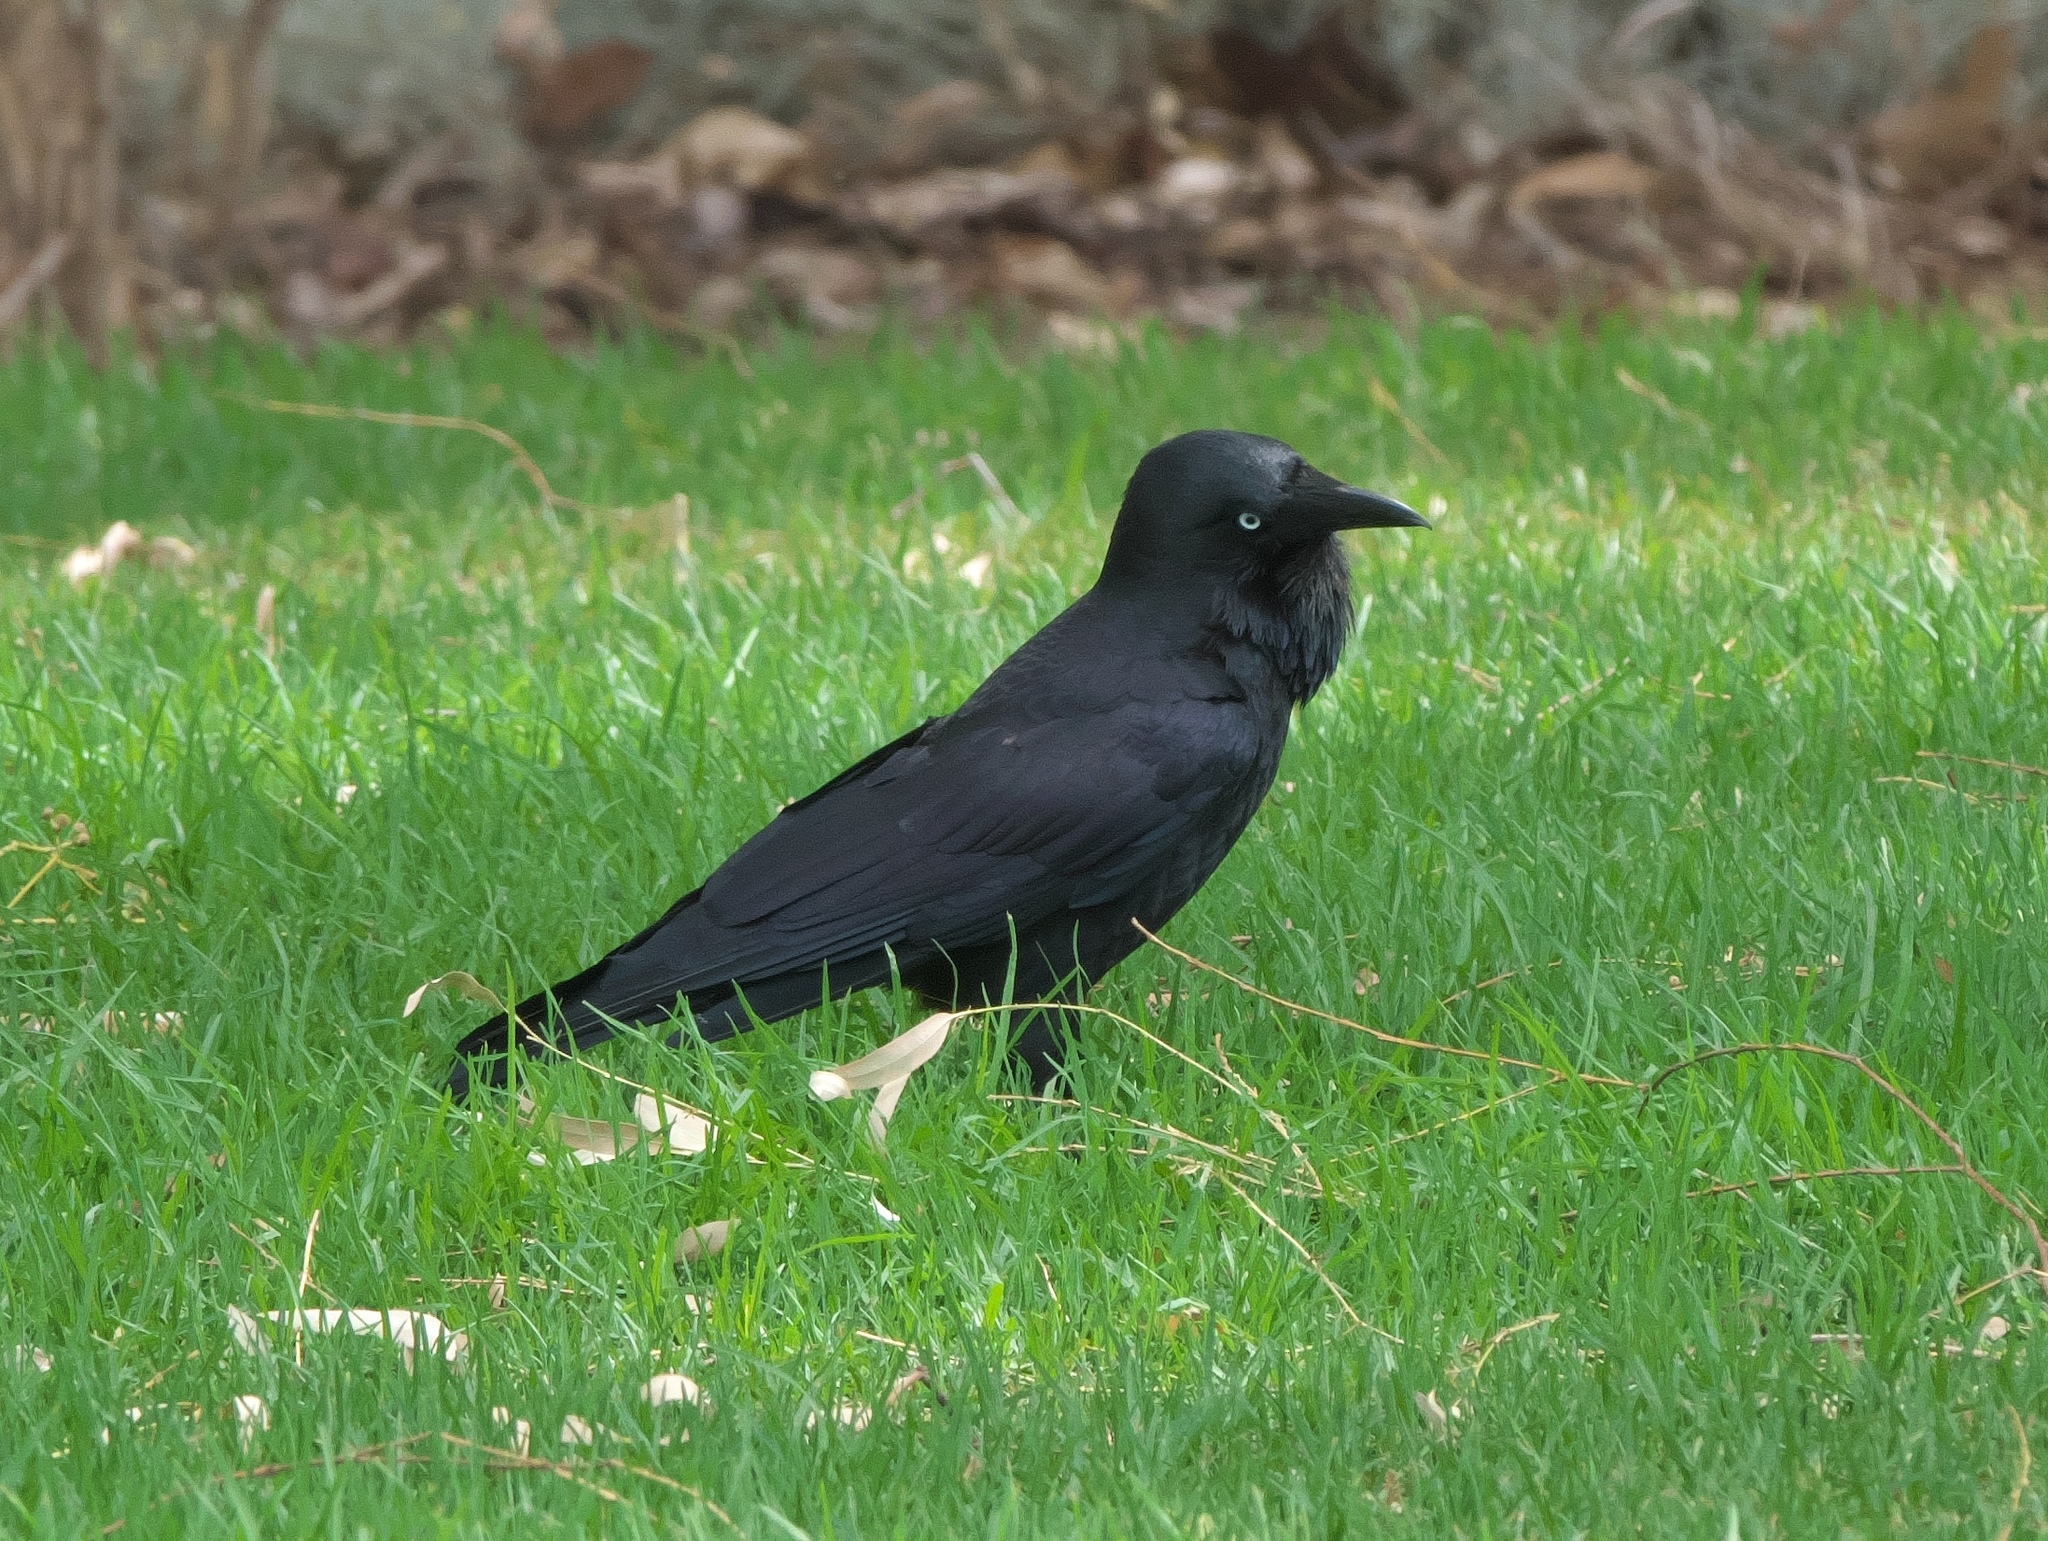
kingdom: Animalia
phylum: Chordata
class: Aves
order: Passeriformes
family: Corvidae
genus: Corvus
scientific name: Corvus coronoides
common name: Australian raven
